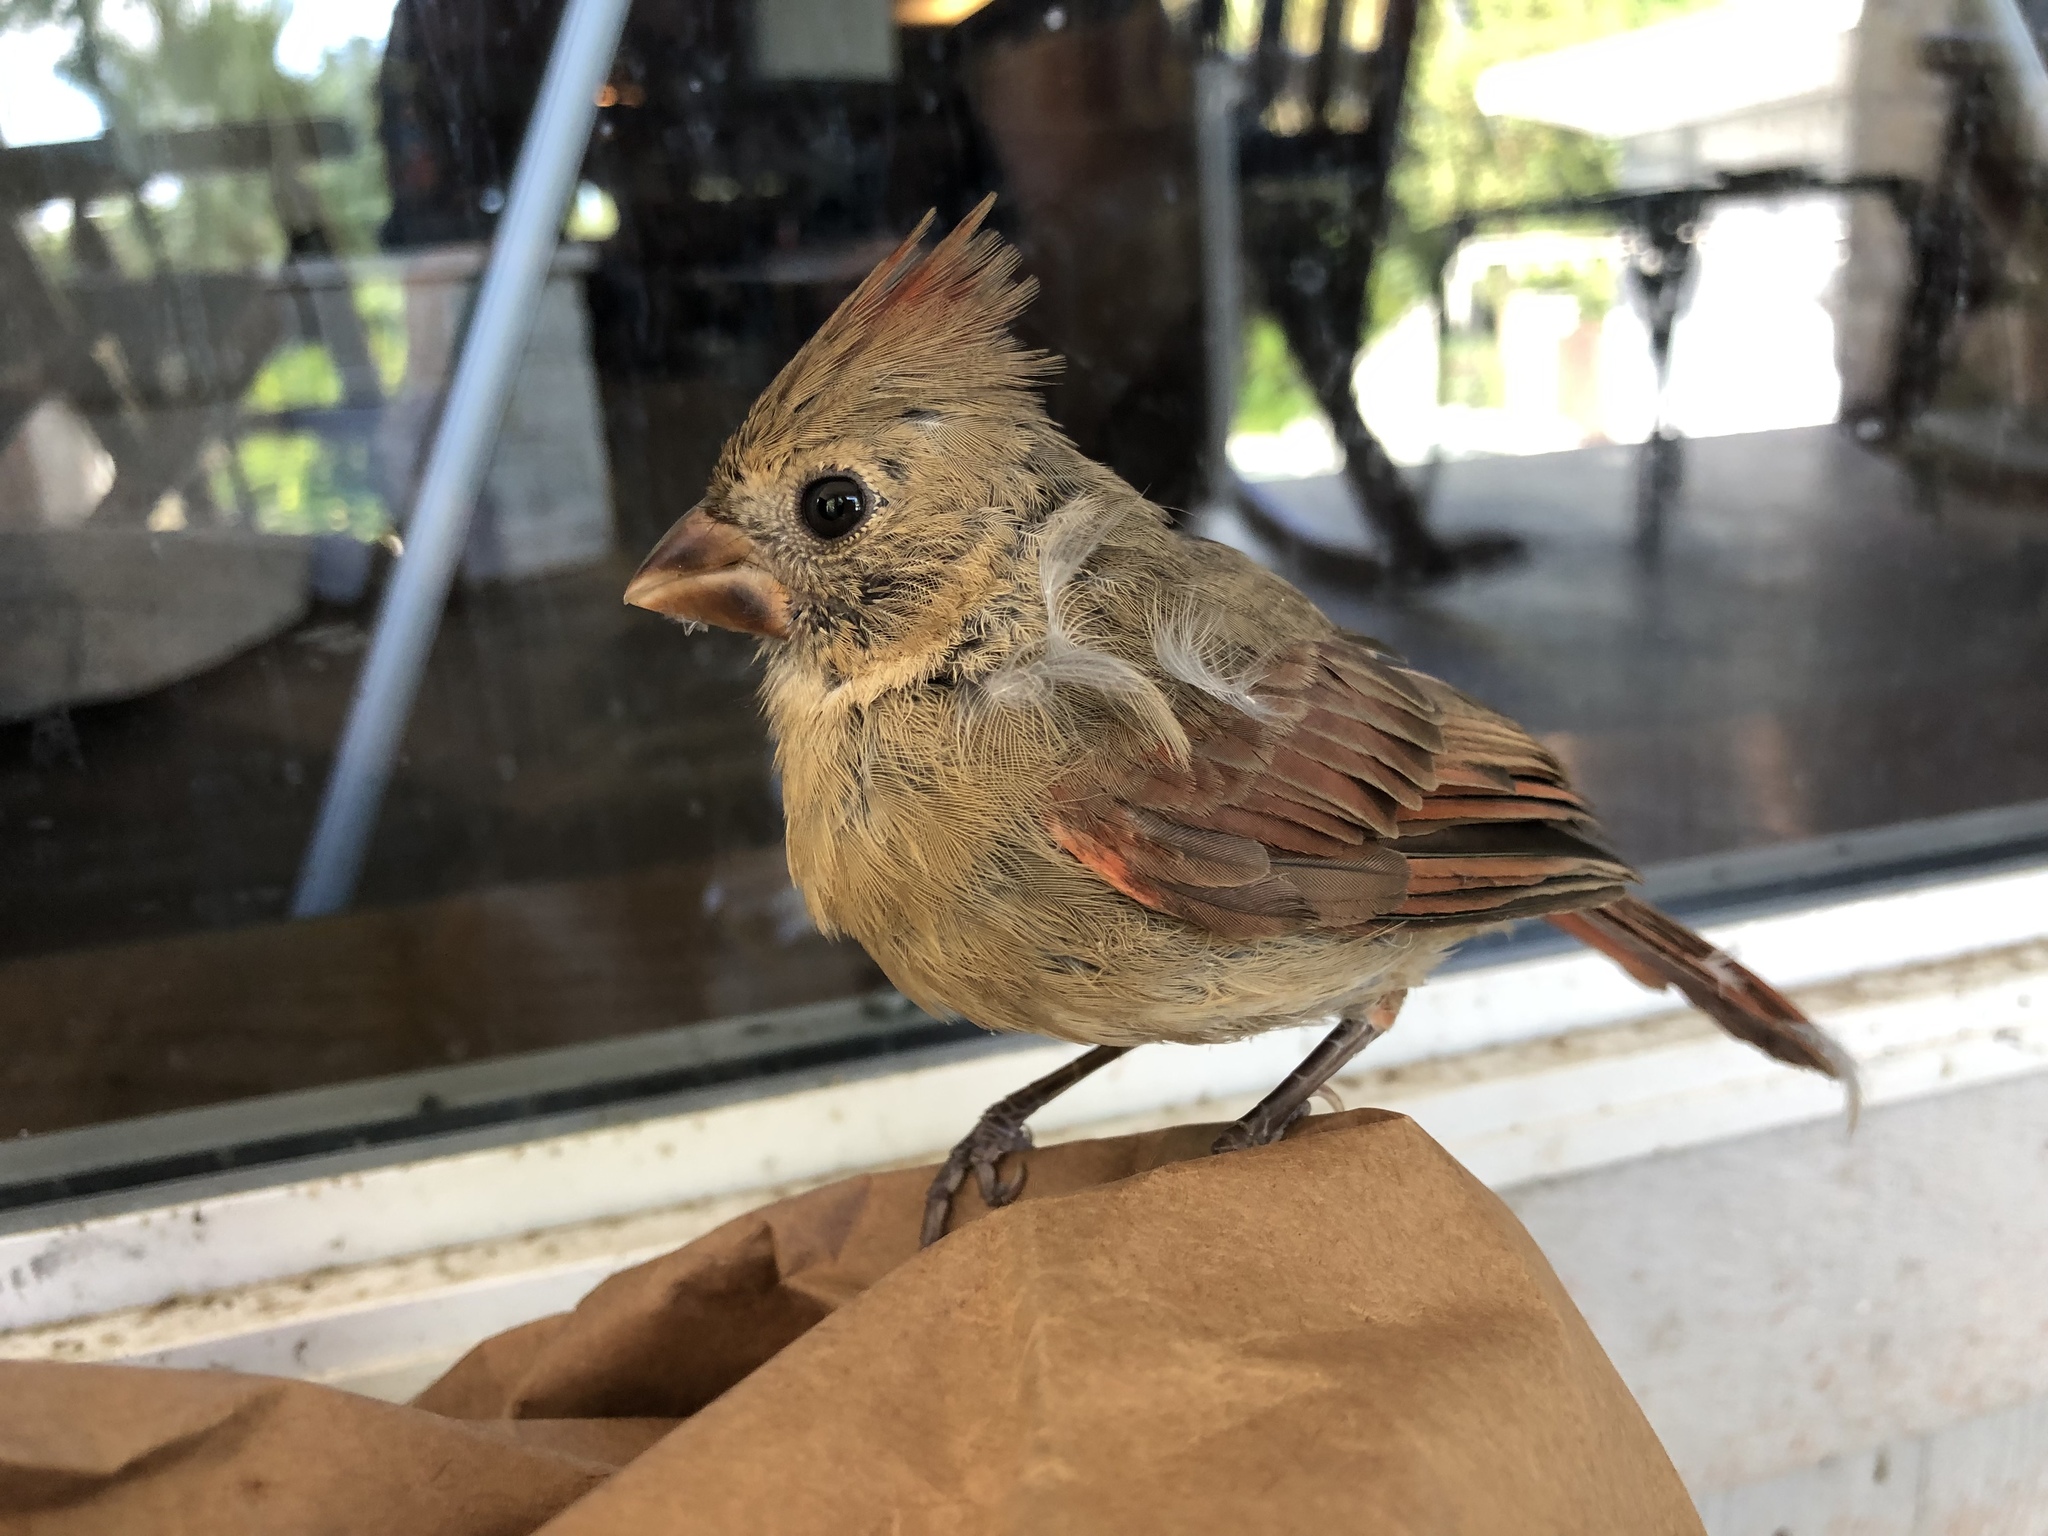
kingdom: Animalia
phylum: Chordata
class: Aves
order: Passeriformes
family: Cardinalidae
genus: Cardinalis
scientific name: Cardinalis cardinalis
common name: Northern cardinal
